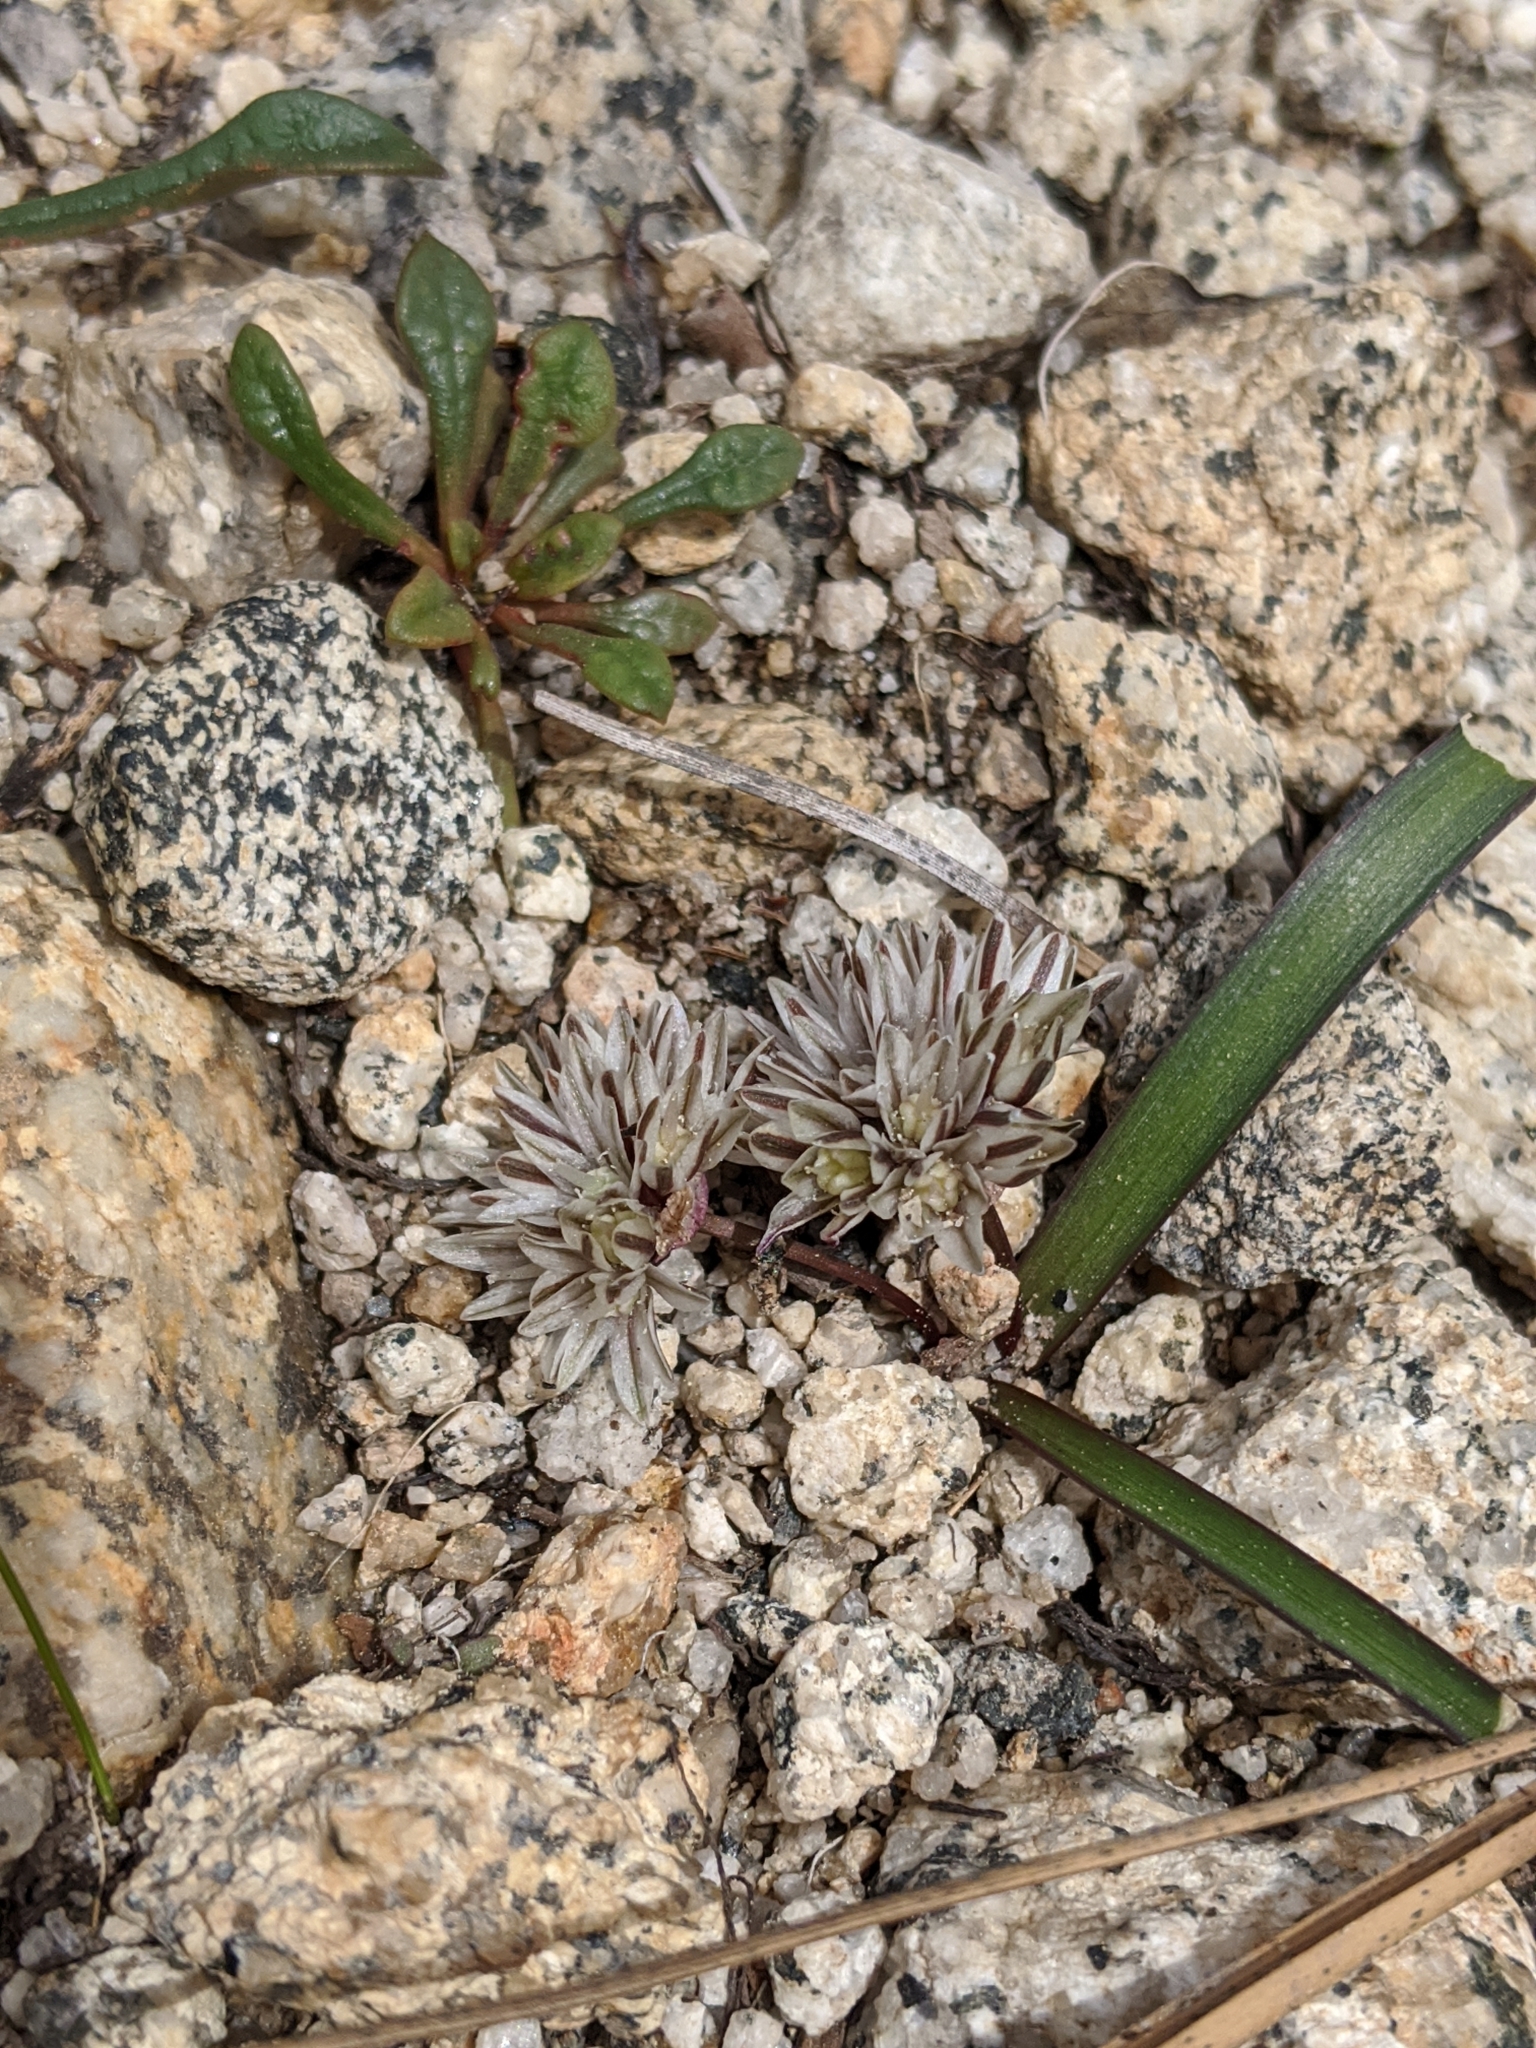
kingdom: Plantae
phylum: Tracheophyta
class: Liliopsida
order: Asparagales
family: Amaryllidaceae
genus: Allium
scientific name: Allium obtusum
